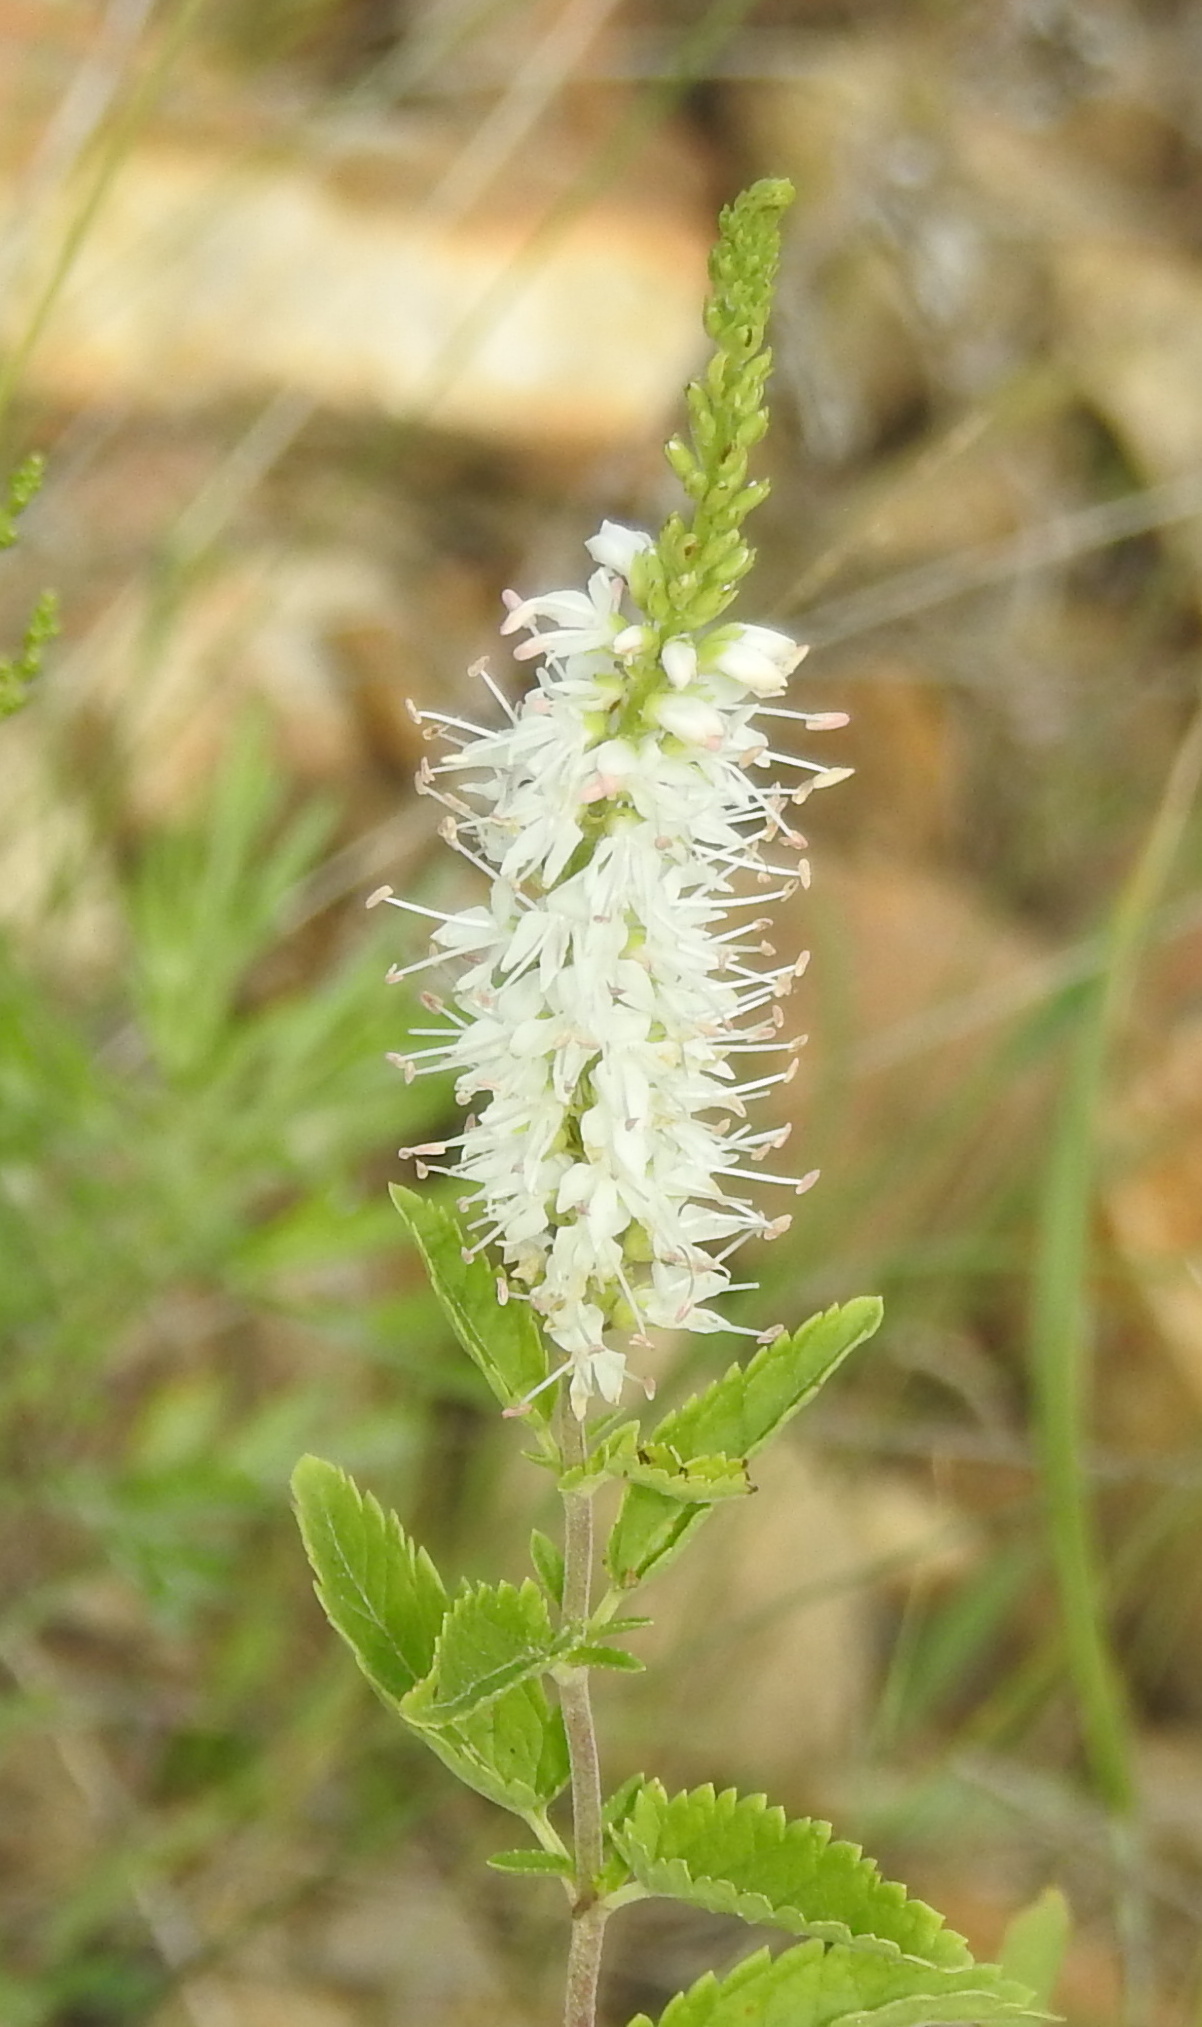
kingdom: Plantae
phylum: Tracheophyta
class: Magnoliopsida
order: Lamiales
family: Plantaginaceae
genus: Veronica
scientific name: Veronica daurica
